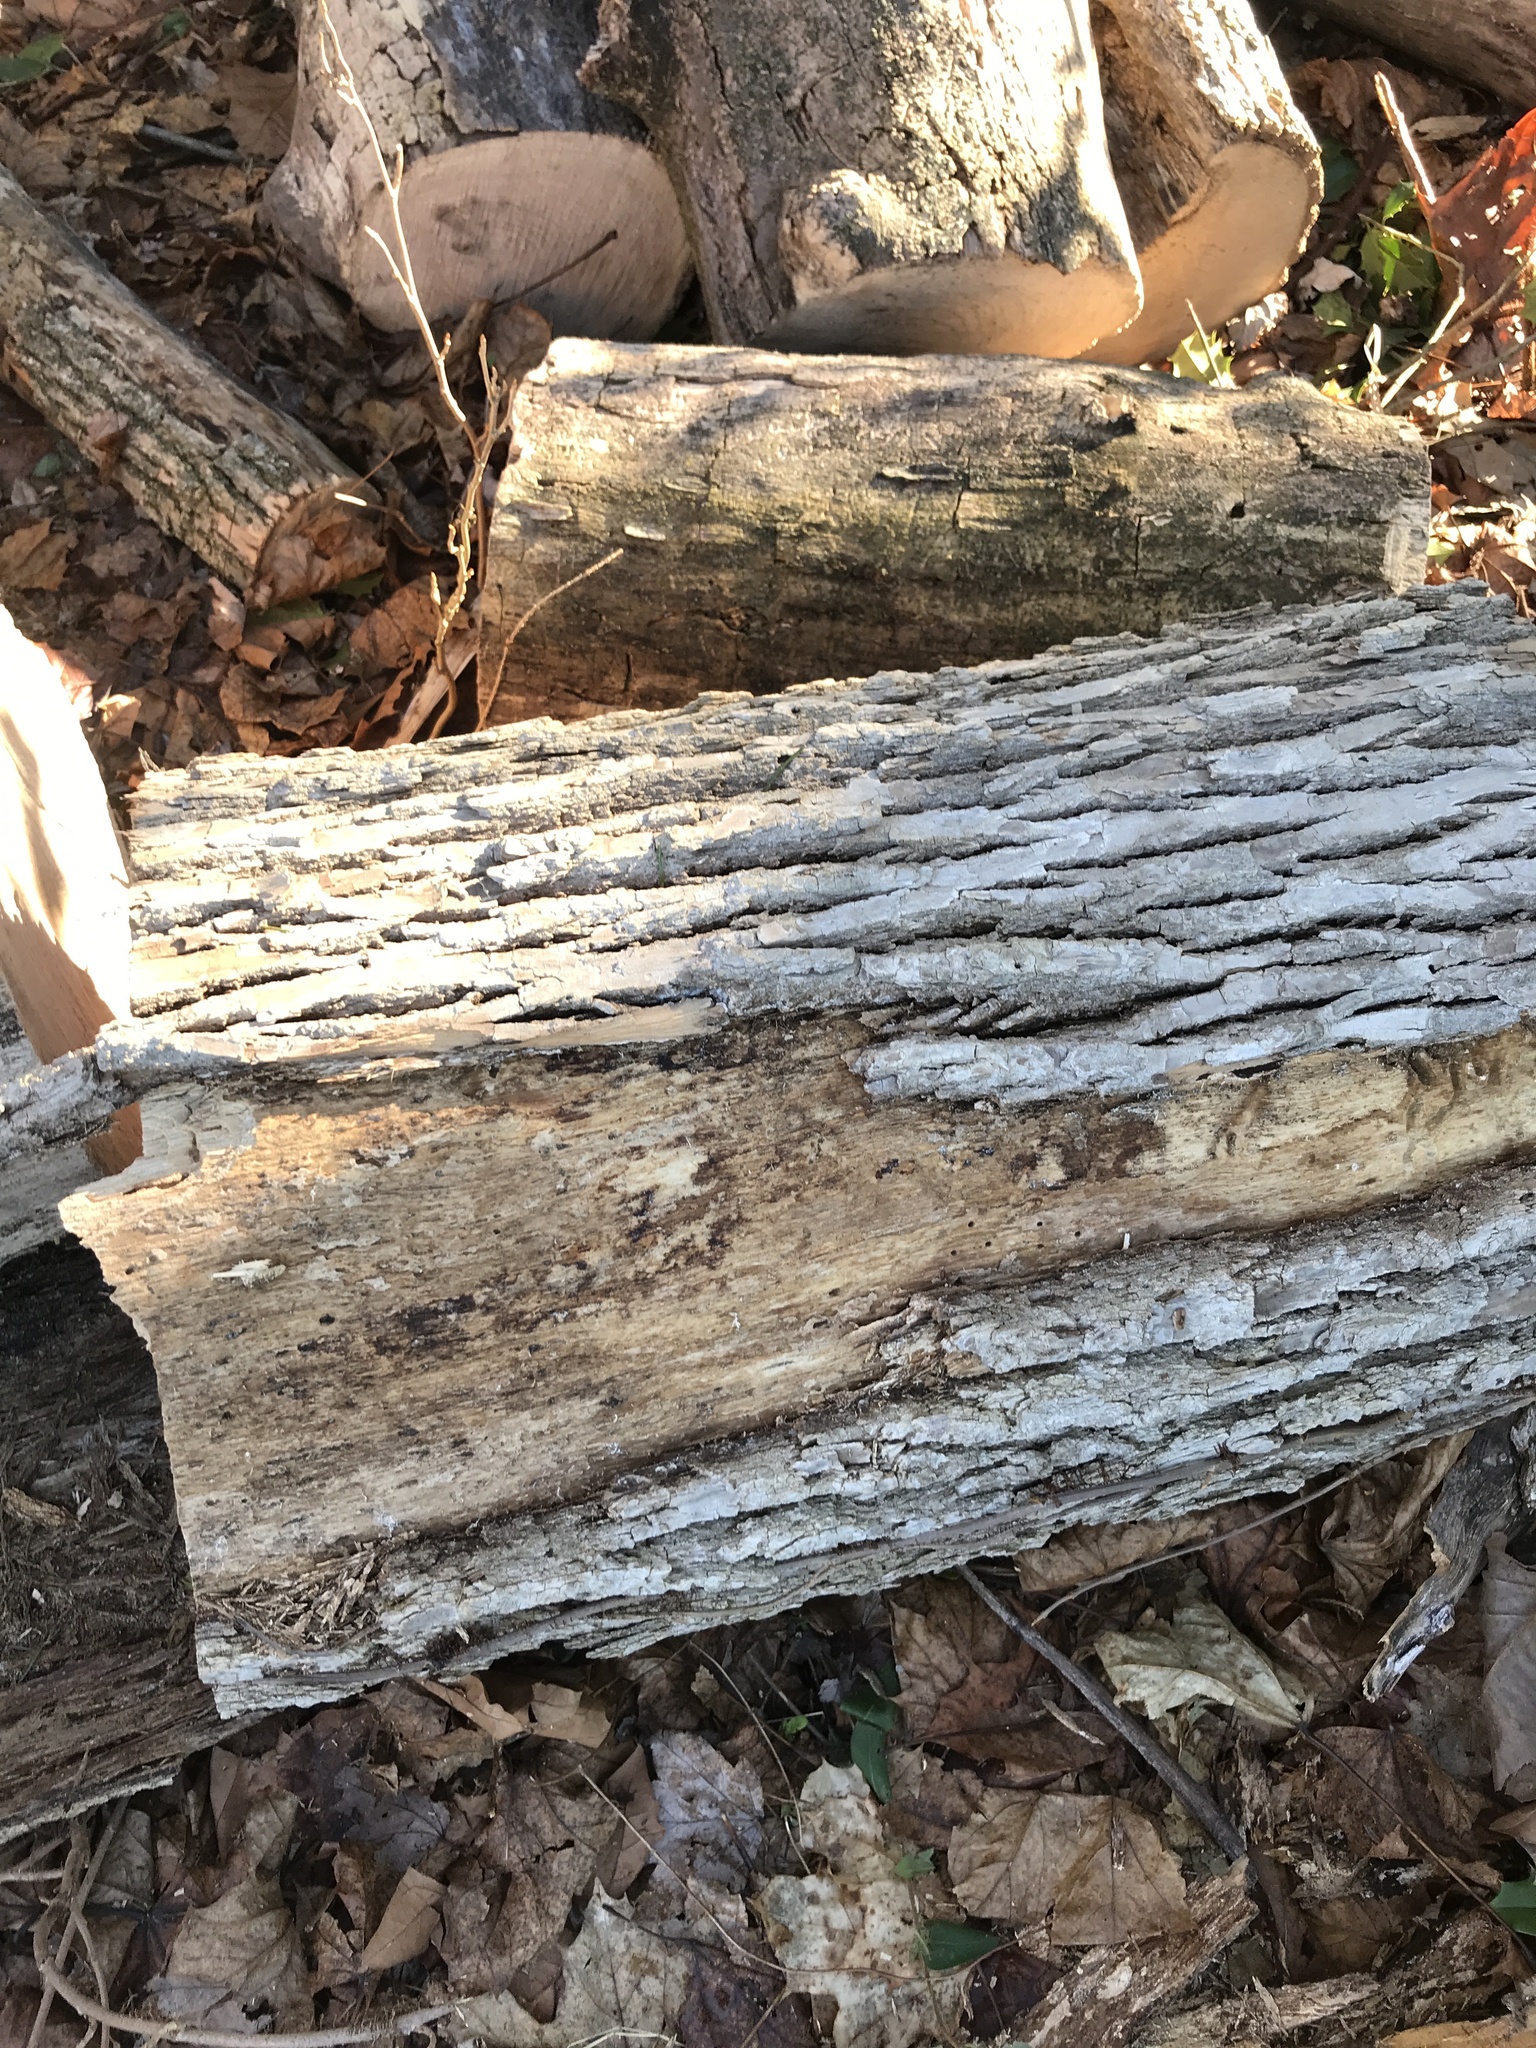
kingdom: Animalia
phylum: Arthropoda
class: Insecta
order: Coleoptera
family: Buprestidae
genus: Agrilus
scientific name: Agrilus planipennis
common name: Emerald ash borer
